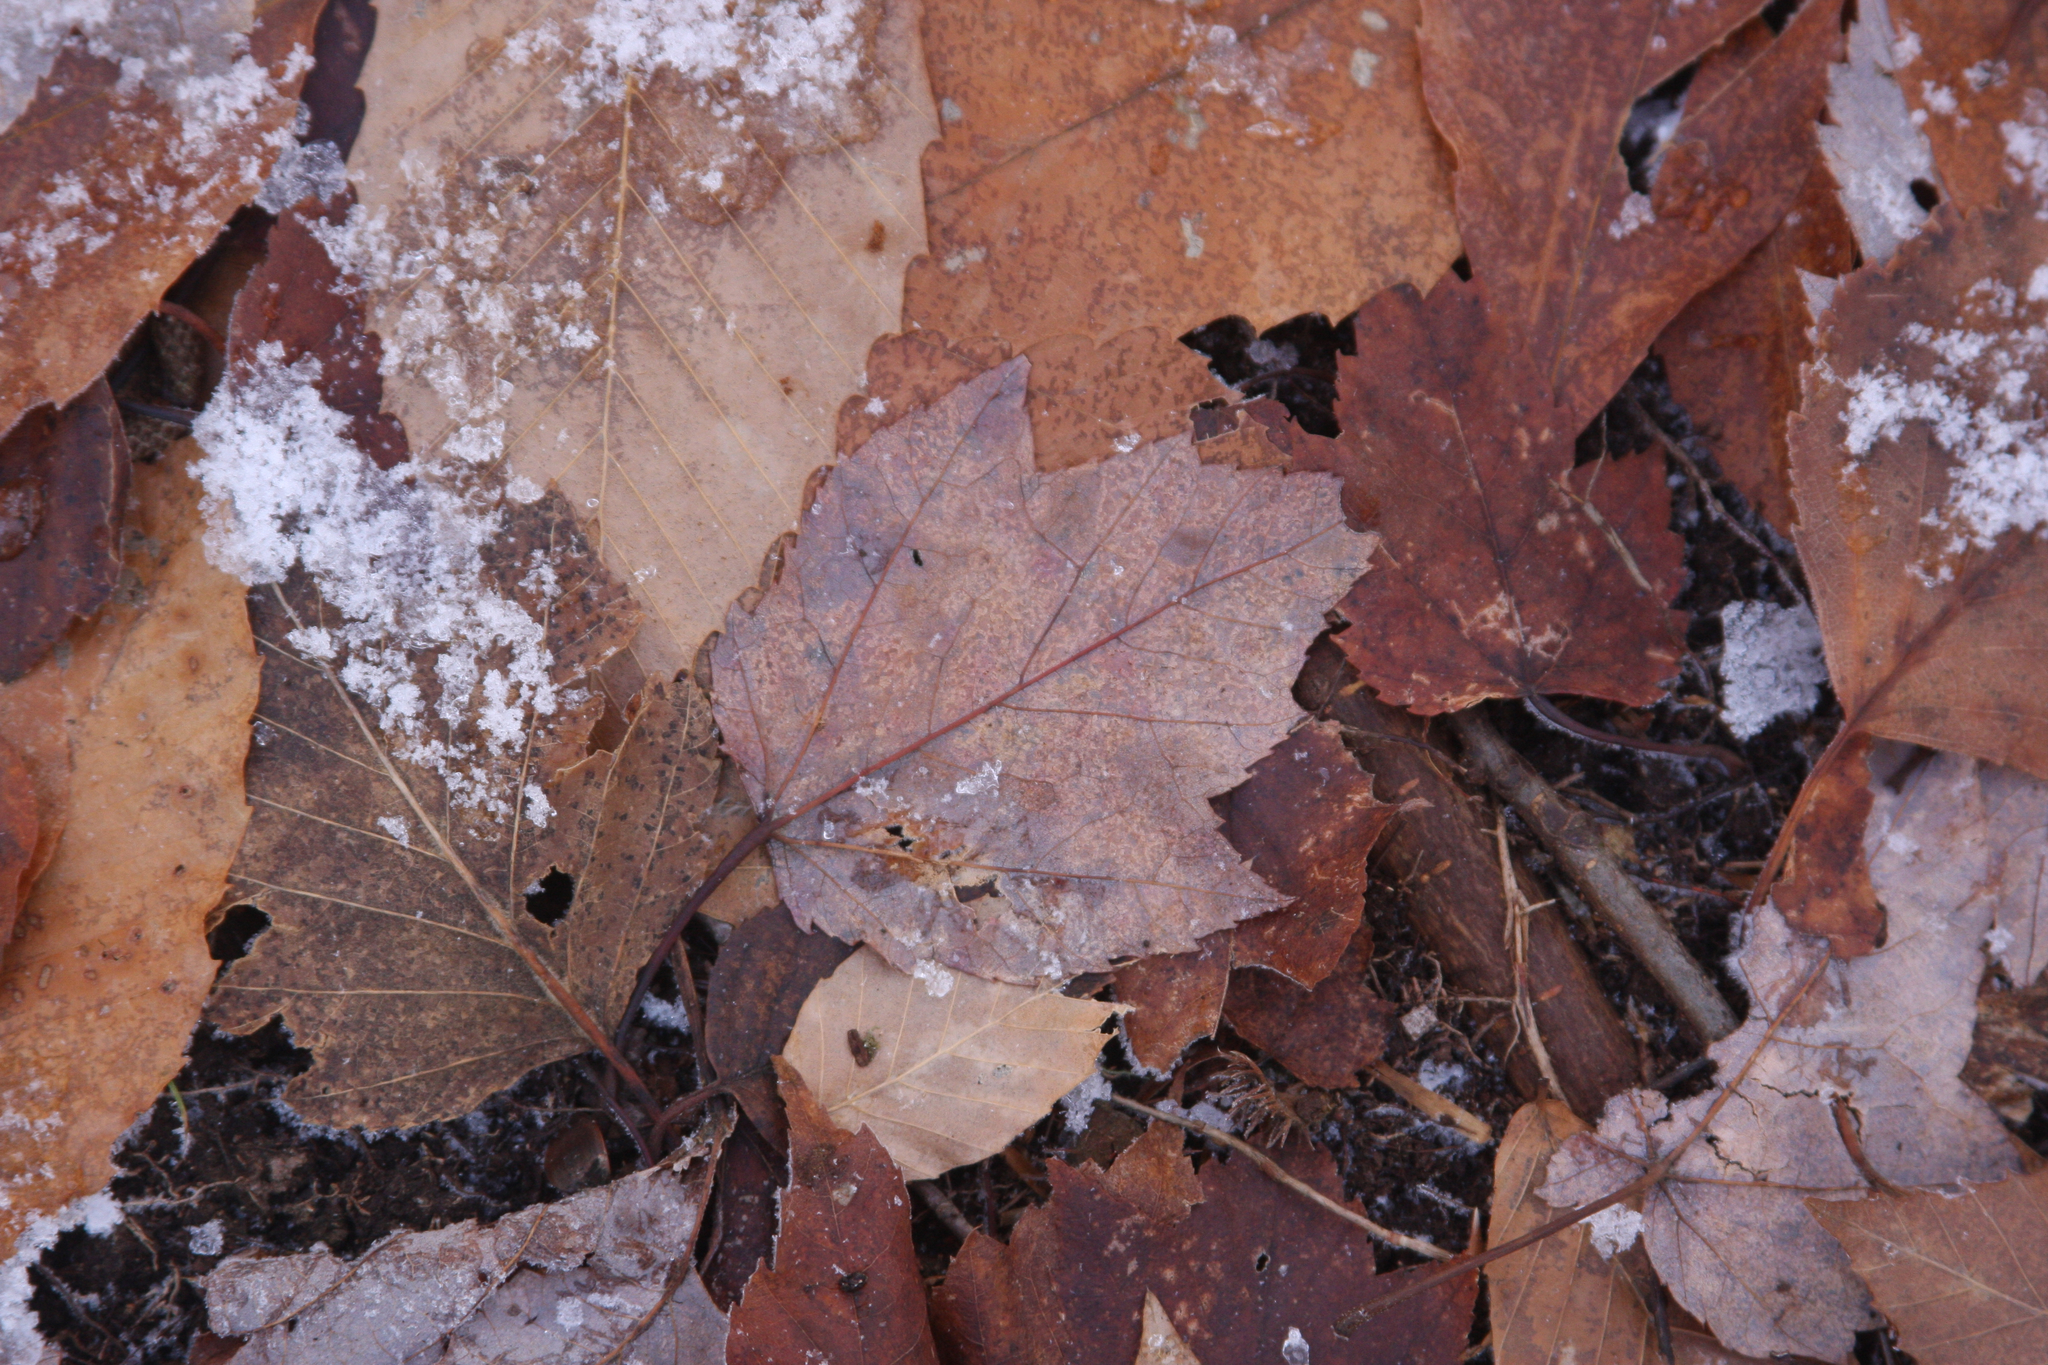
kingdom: Plantae
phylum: Tracheophyta
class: Magnoliopsida
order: Sapindales
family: Sapindaceae
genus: Acer
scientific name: Acer rubrum
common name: Red maple
